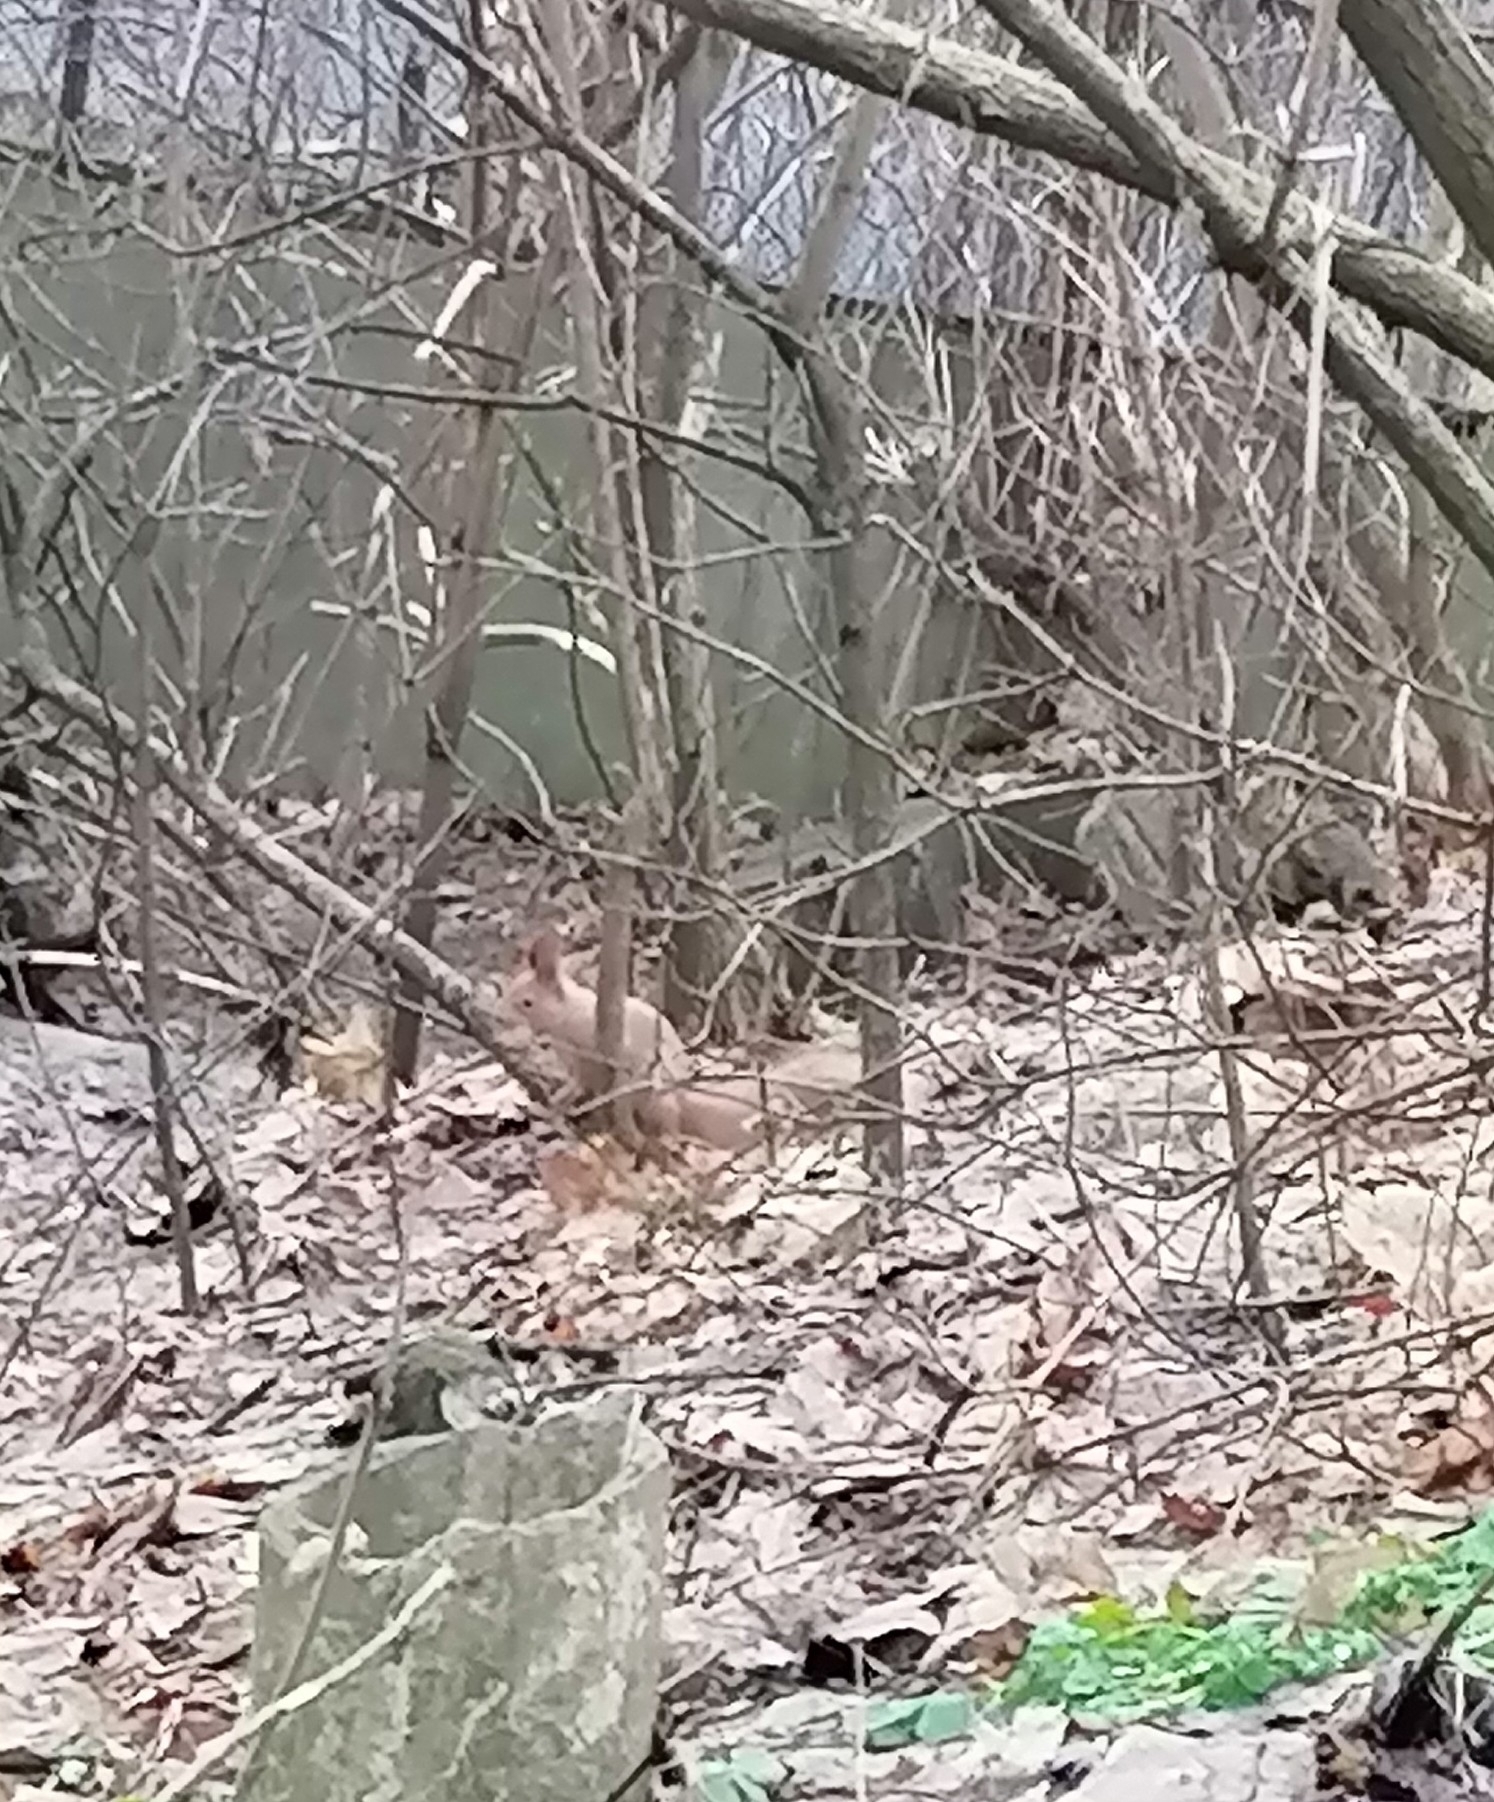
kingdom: Animalia
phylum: Chordata
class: Mammalia
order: Rodentia
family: Sciuridae
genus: Sciurus
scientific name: Sciurus vulgaris
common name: Eurasian red squirrel
